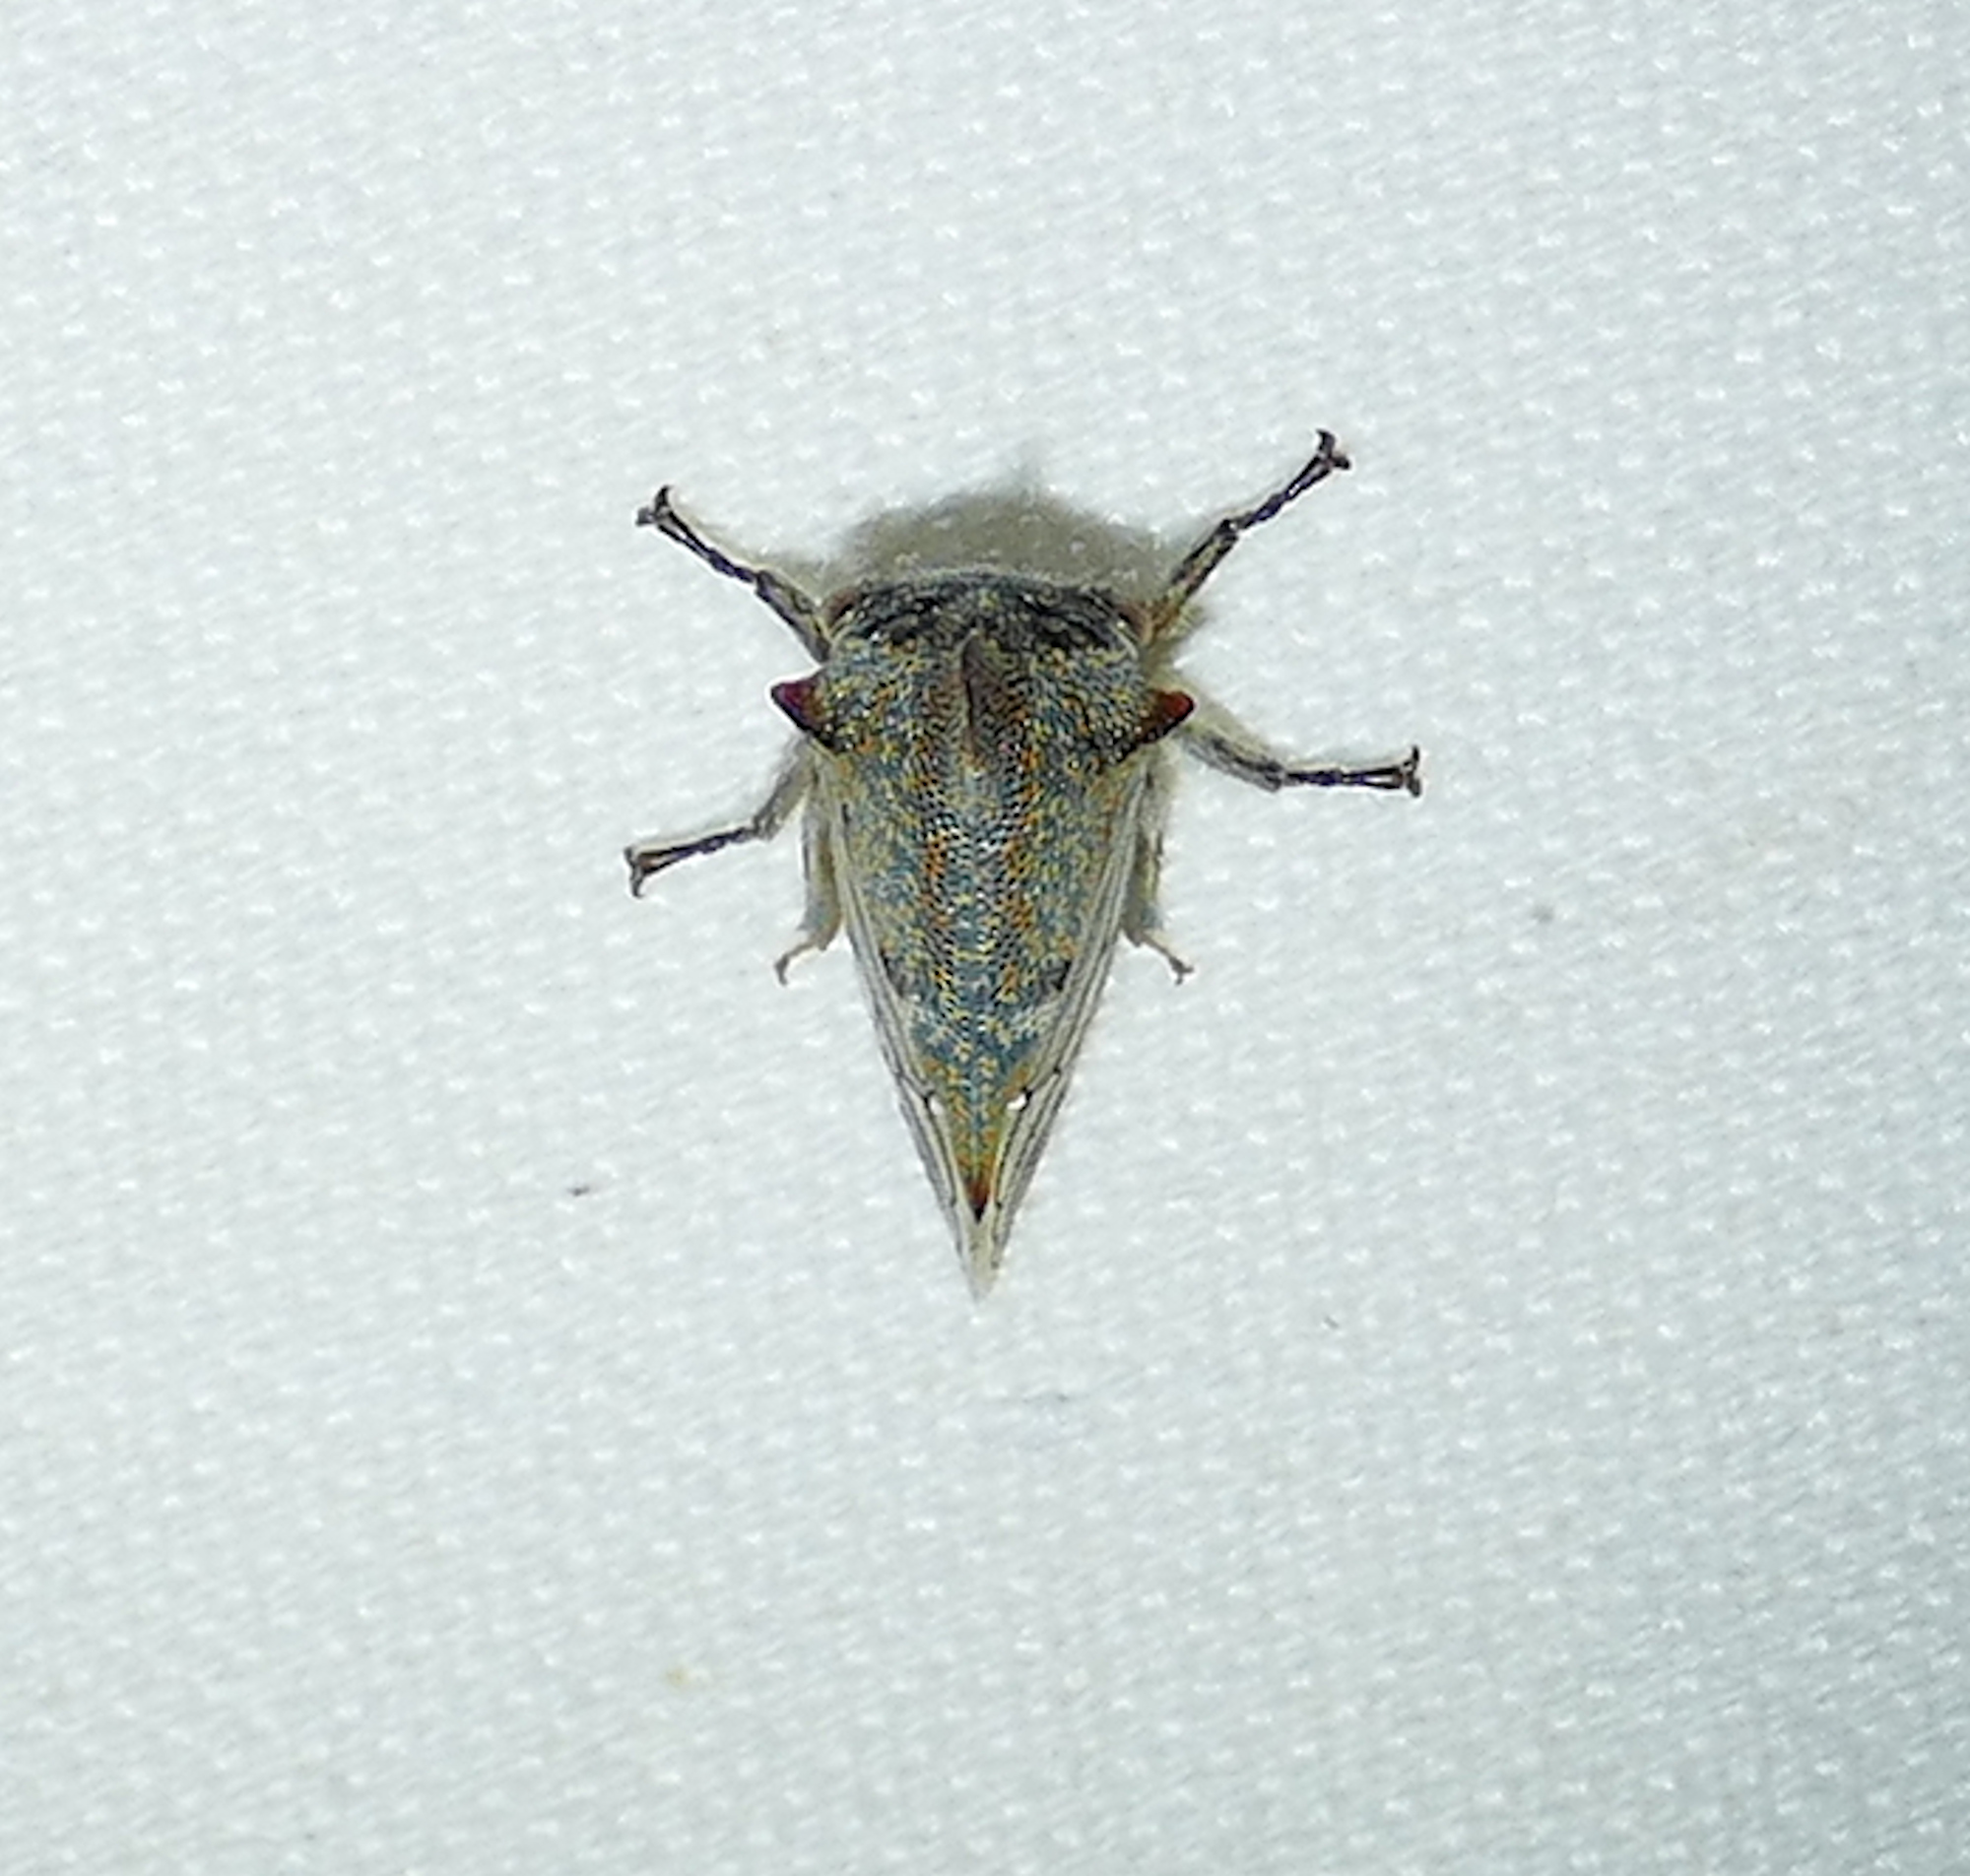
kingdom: Animalia
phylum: Arthropoda
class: Insecta
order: Hemiptera
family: Membracidae
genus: Platycotis
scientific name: Platycotis vittatus
